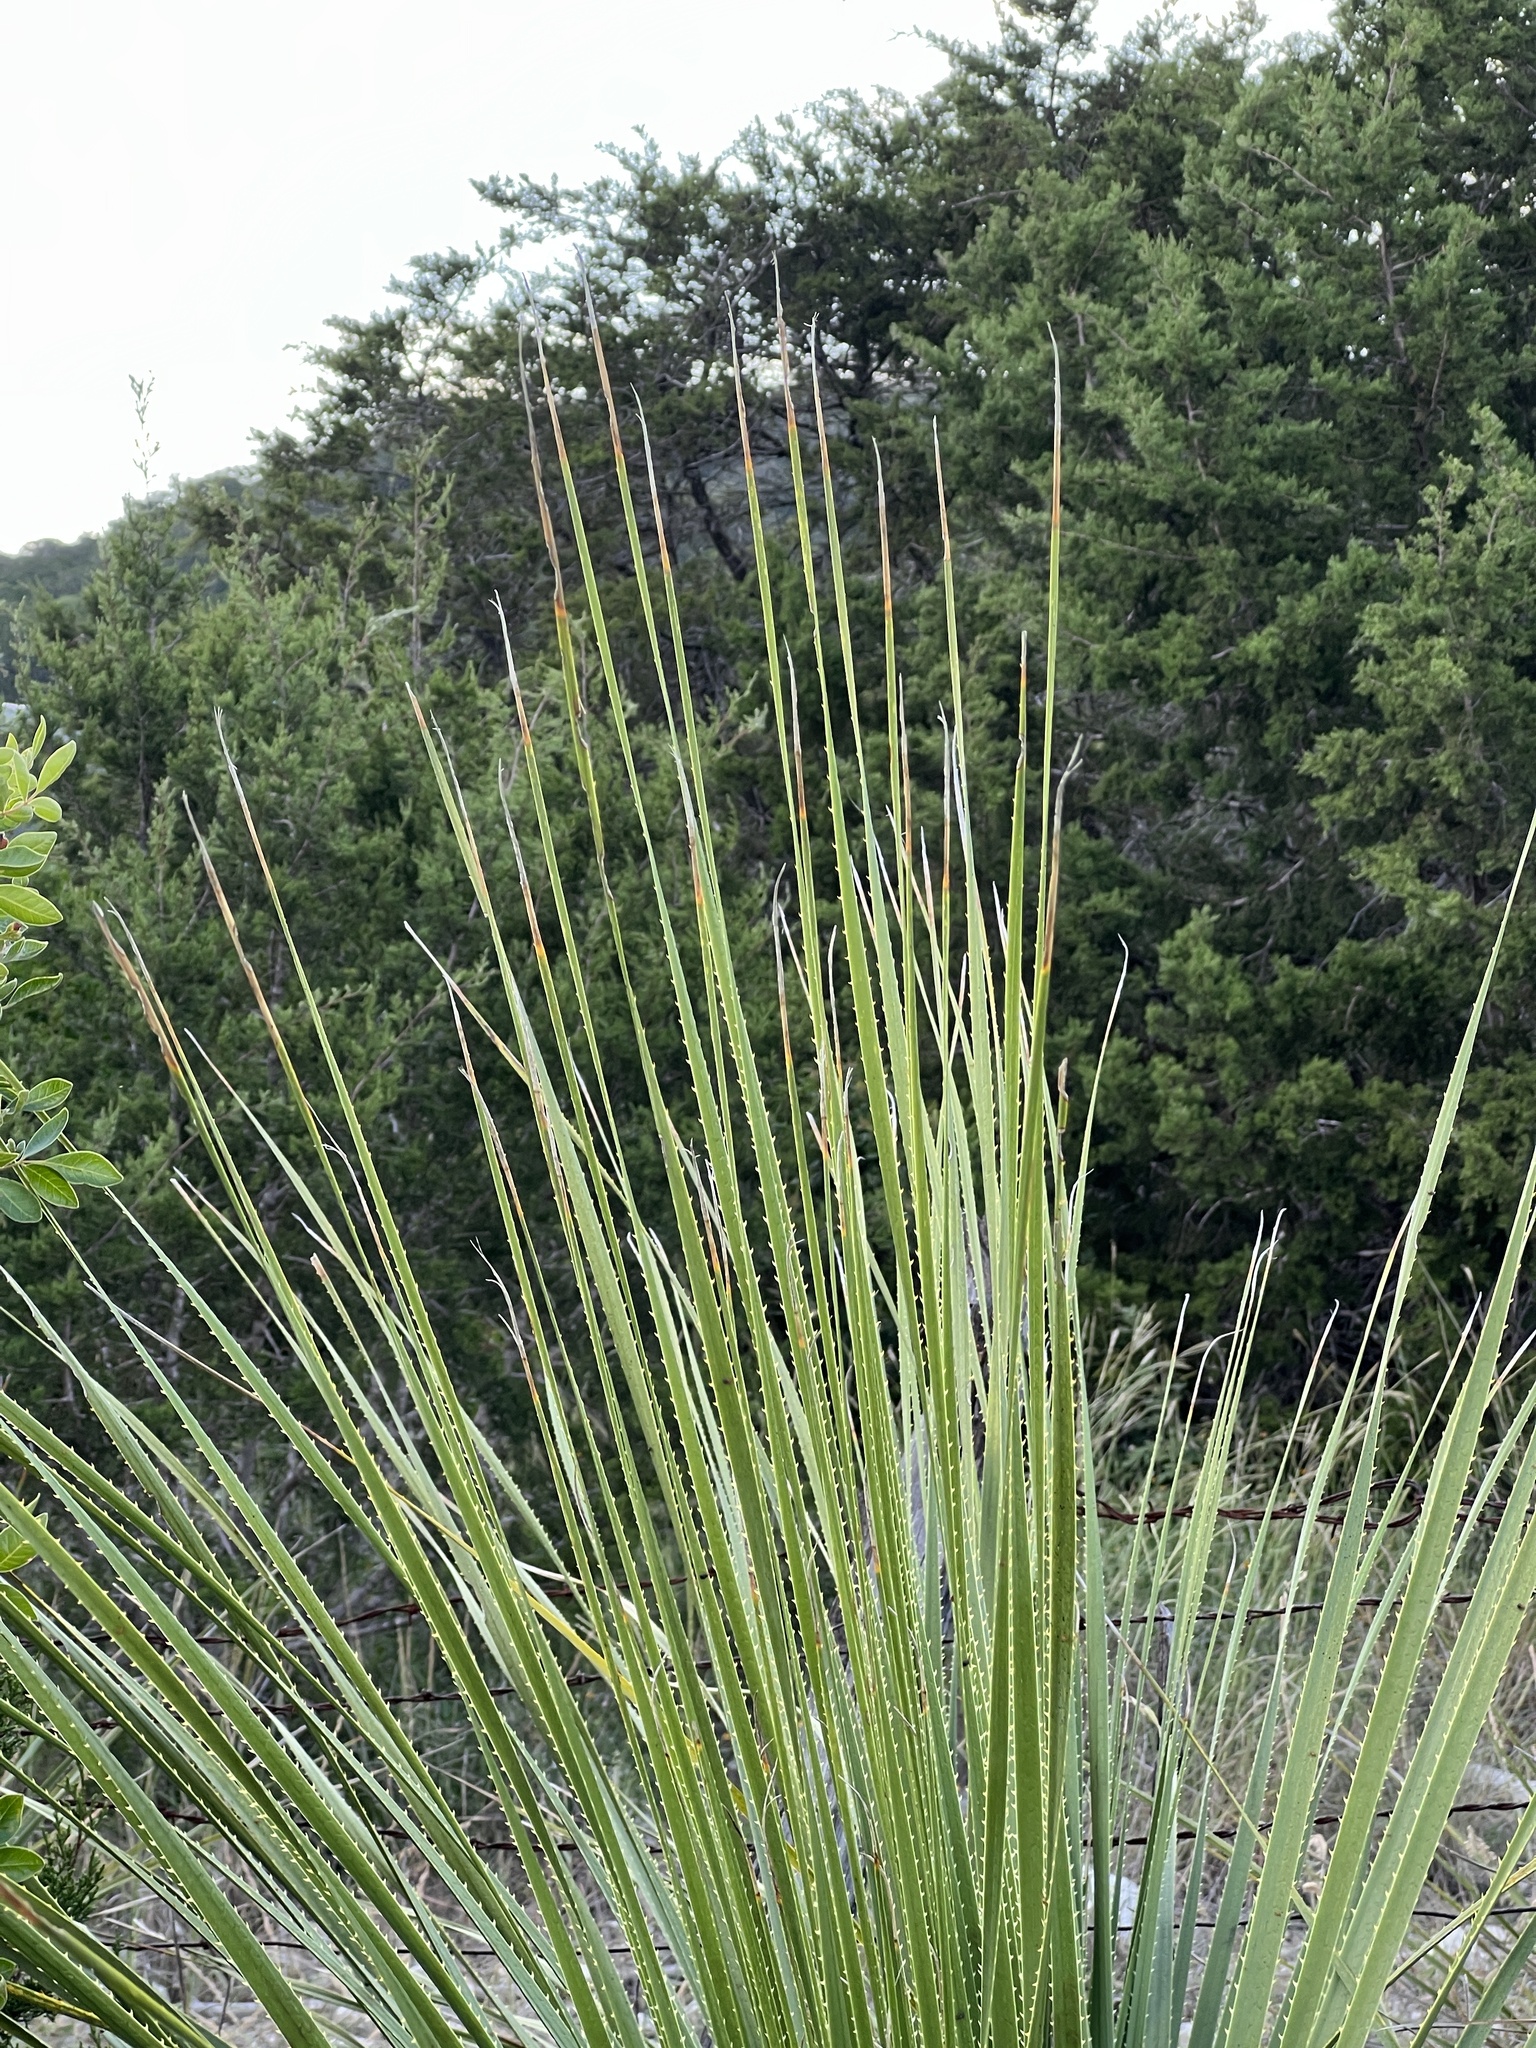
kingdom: Plantae
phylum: Tracheophyta
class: Liliopsida
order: Asparagales
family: Asparagaceae
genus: Dasylirion
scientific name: Dasylirion texanum
